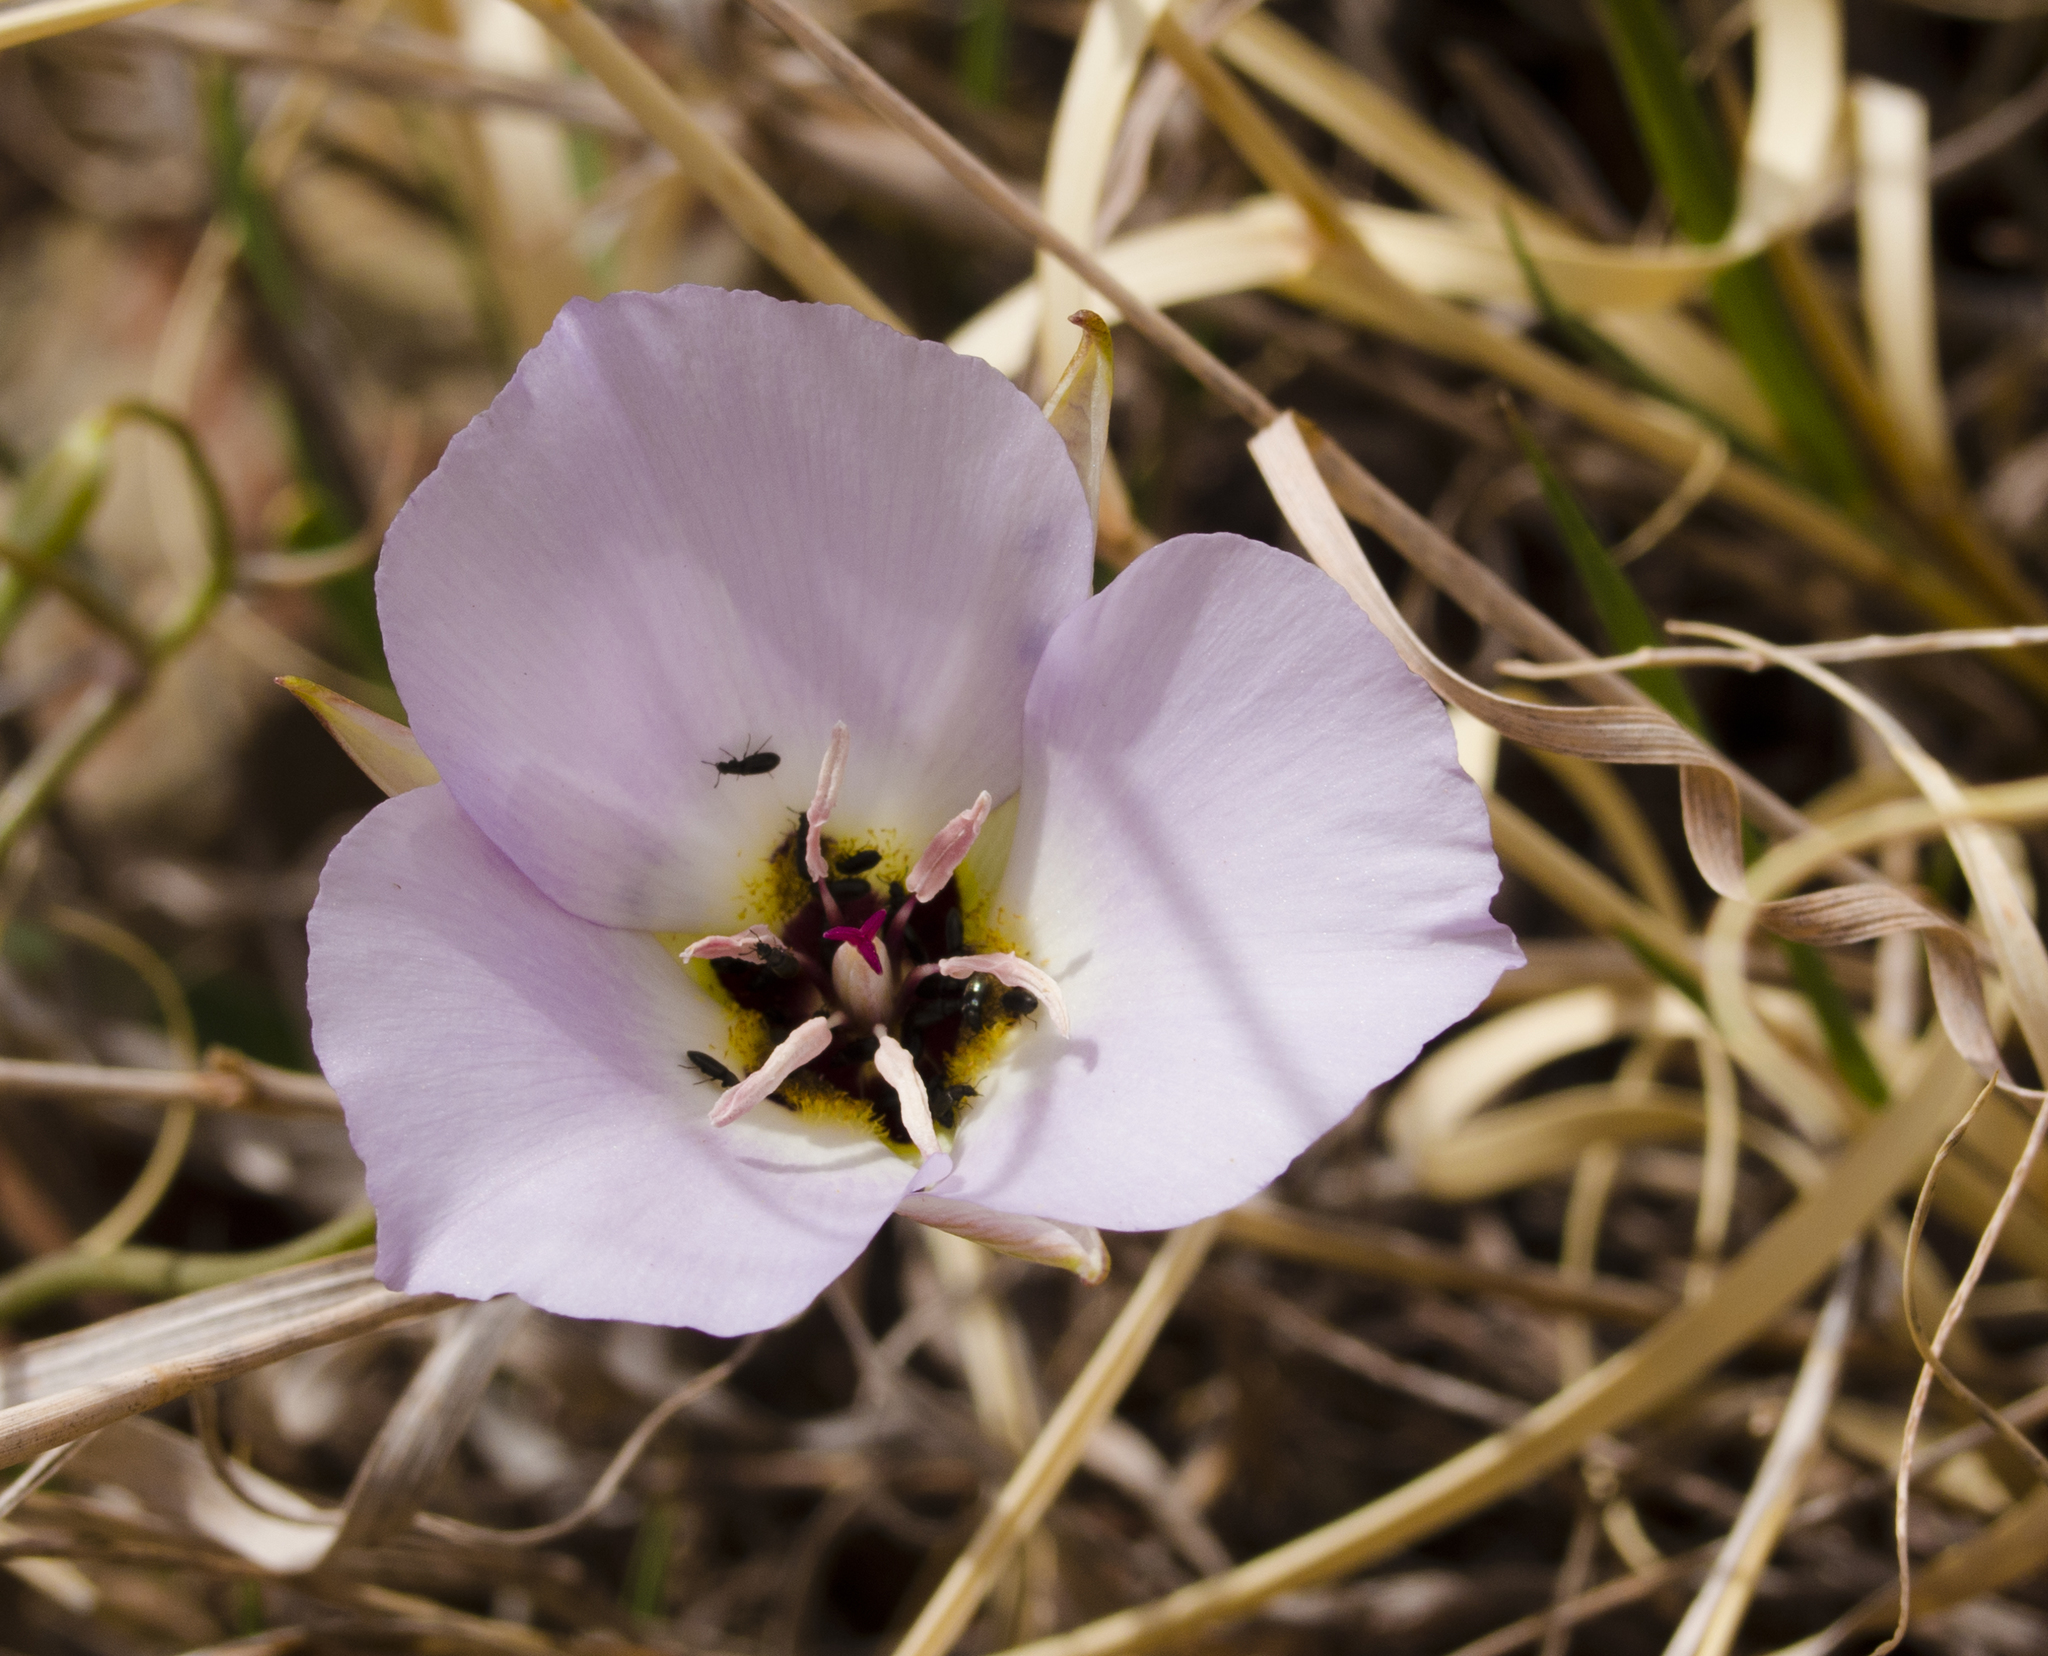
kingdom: Plantae
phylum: Tracheophyta
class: Liliopsida
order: Liliales
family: Liliaceae
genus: Calochortus
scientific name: Calochortus flexuosus
